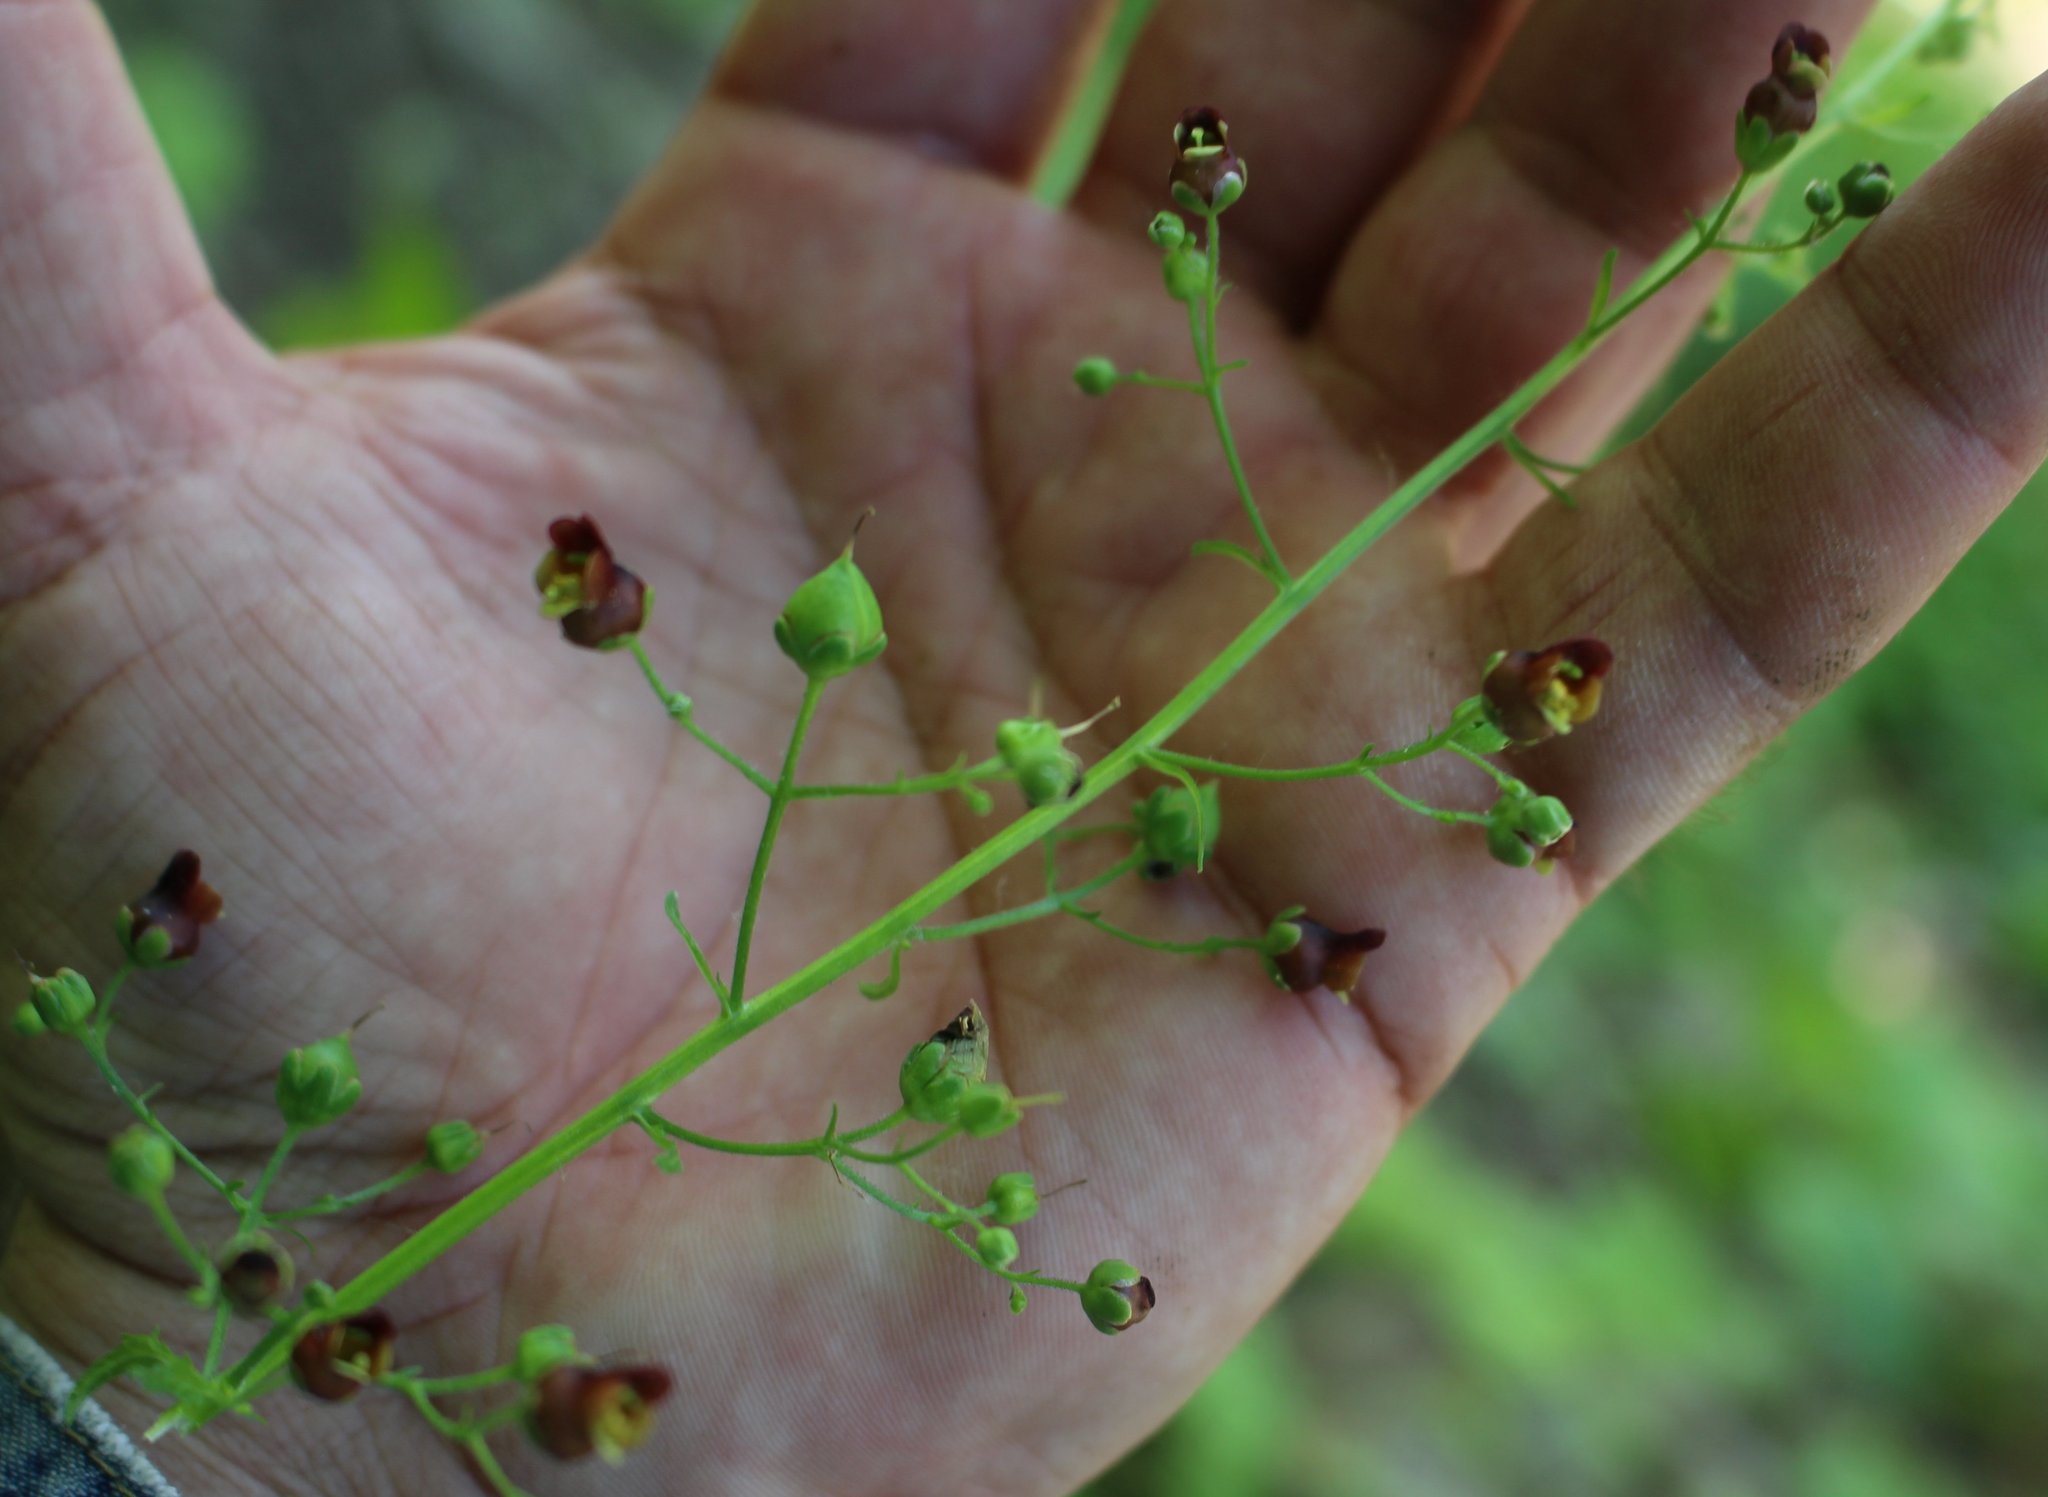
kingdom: Plantae
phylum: Tracheophyta
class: Magnoliopsida
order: Lamiales
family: Scrophulariaceae
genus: Scrophularia
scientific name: Scrophularia scopolii
